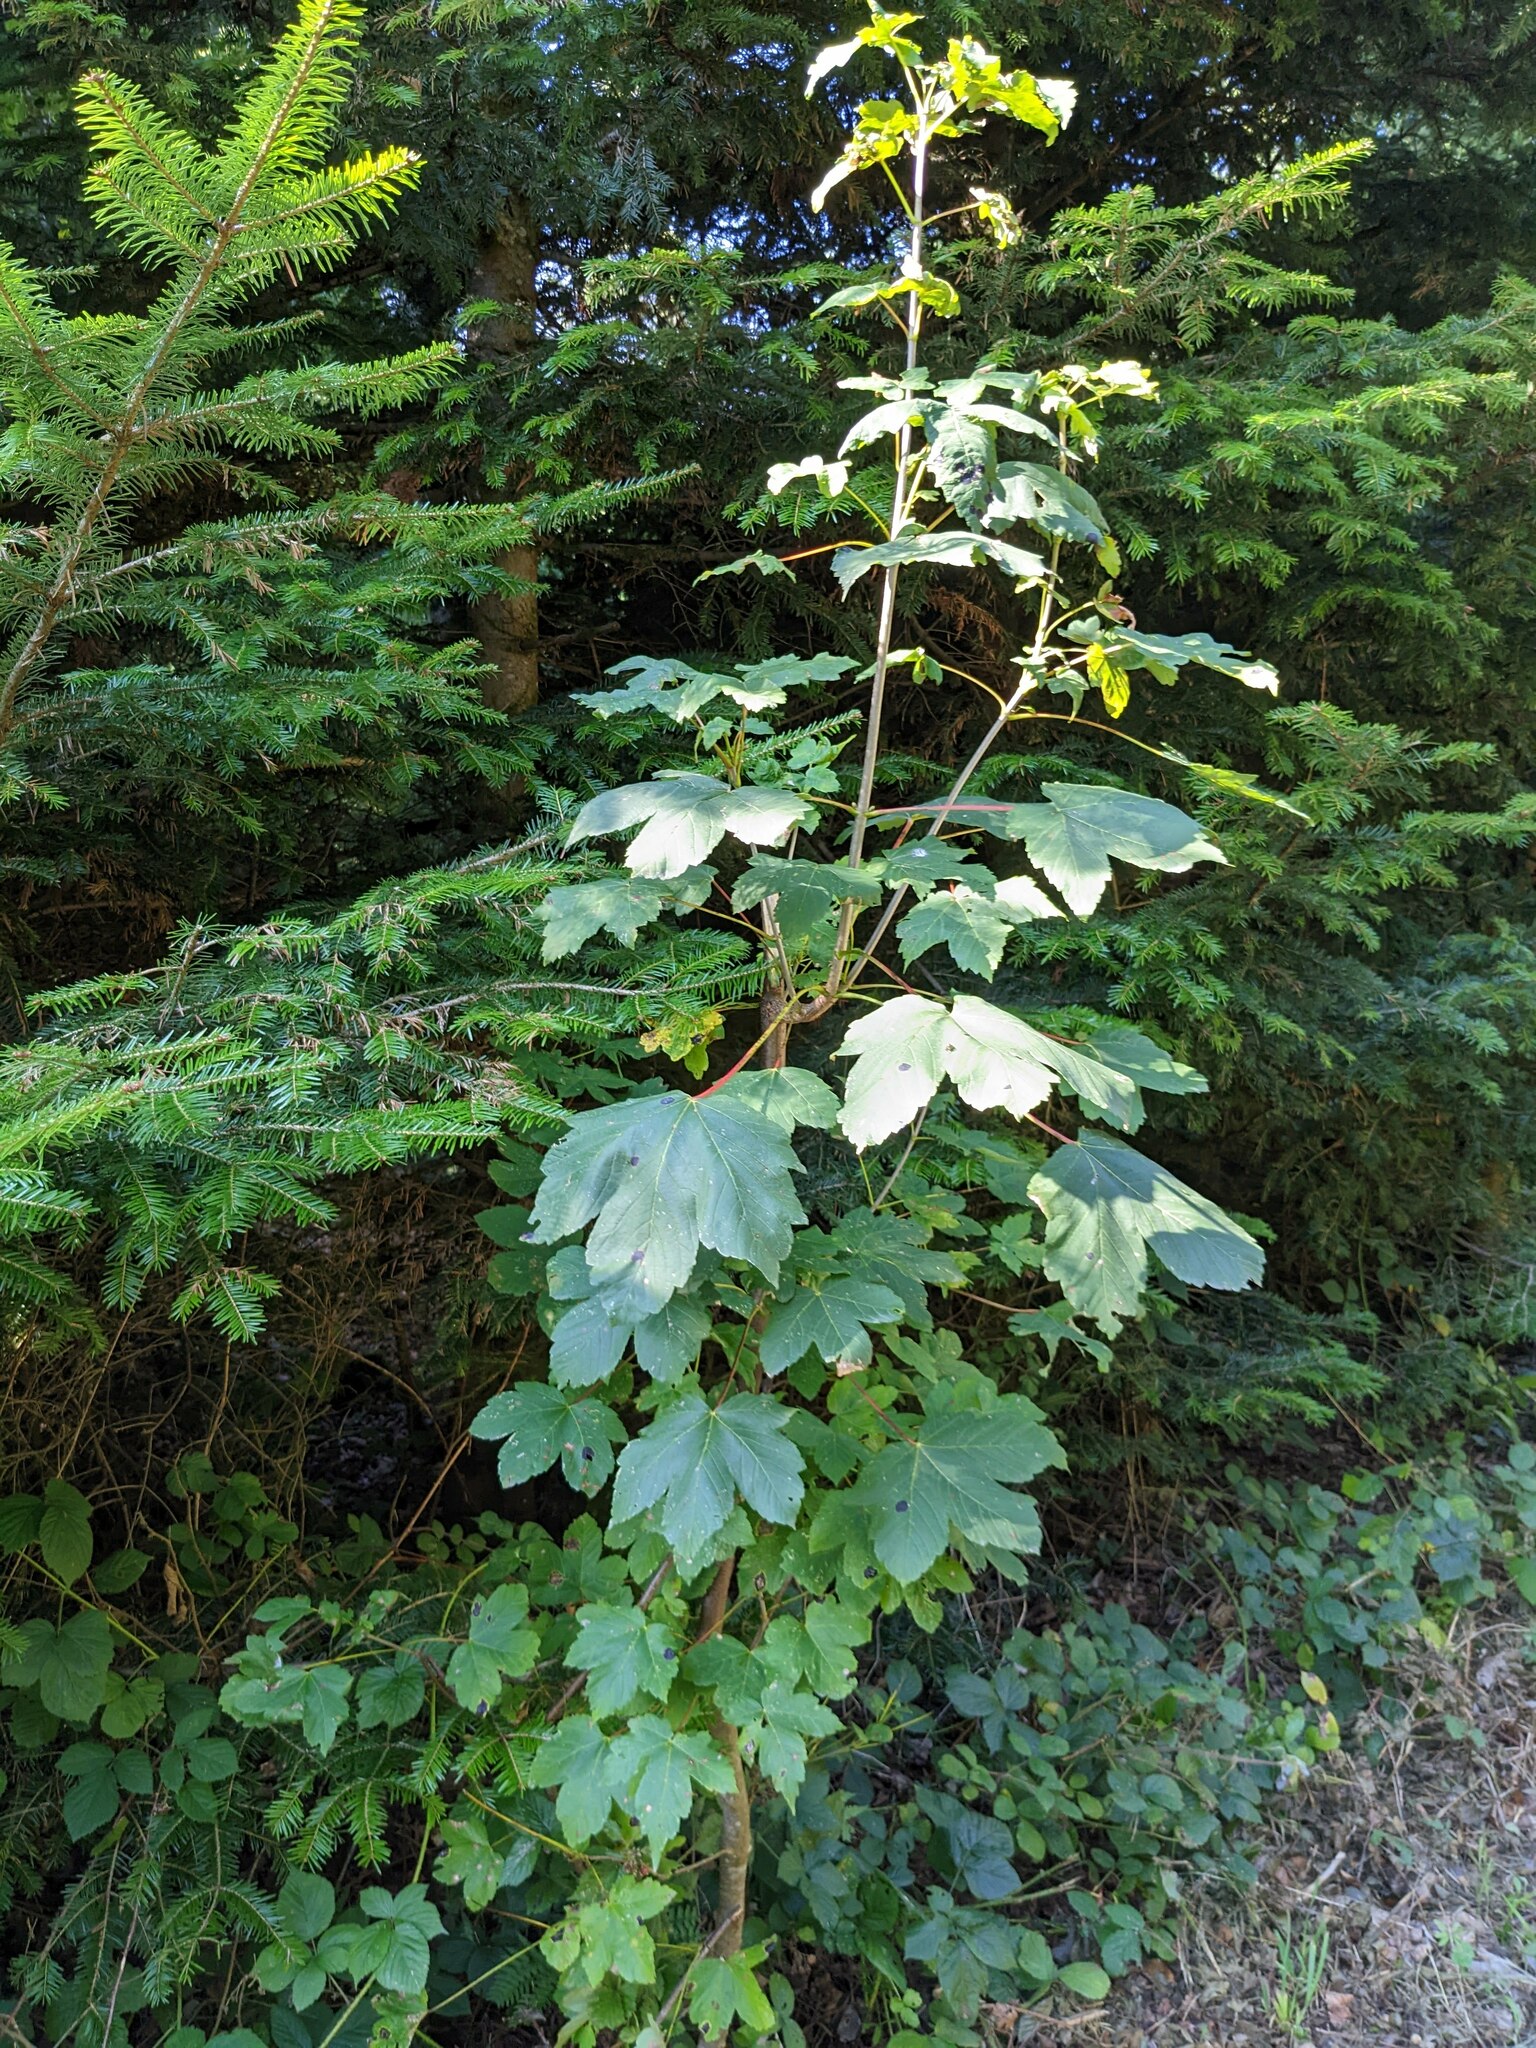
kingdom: Plantae
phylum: Tracheophyta
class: Magnoliopsida
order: Sapindales
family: Sapindaceae
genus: Acer
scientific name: Acer pseudoplatanus
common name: Sycamore
